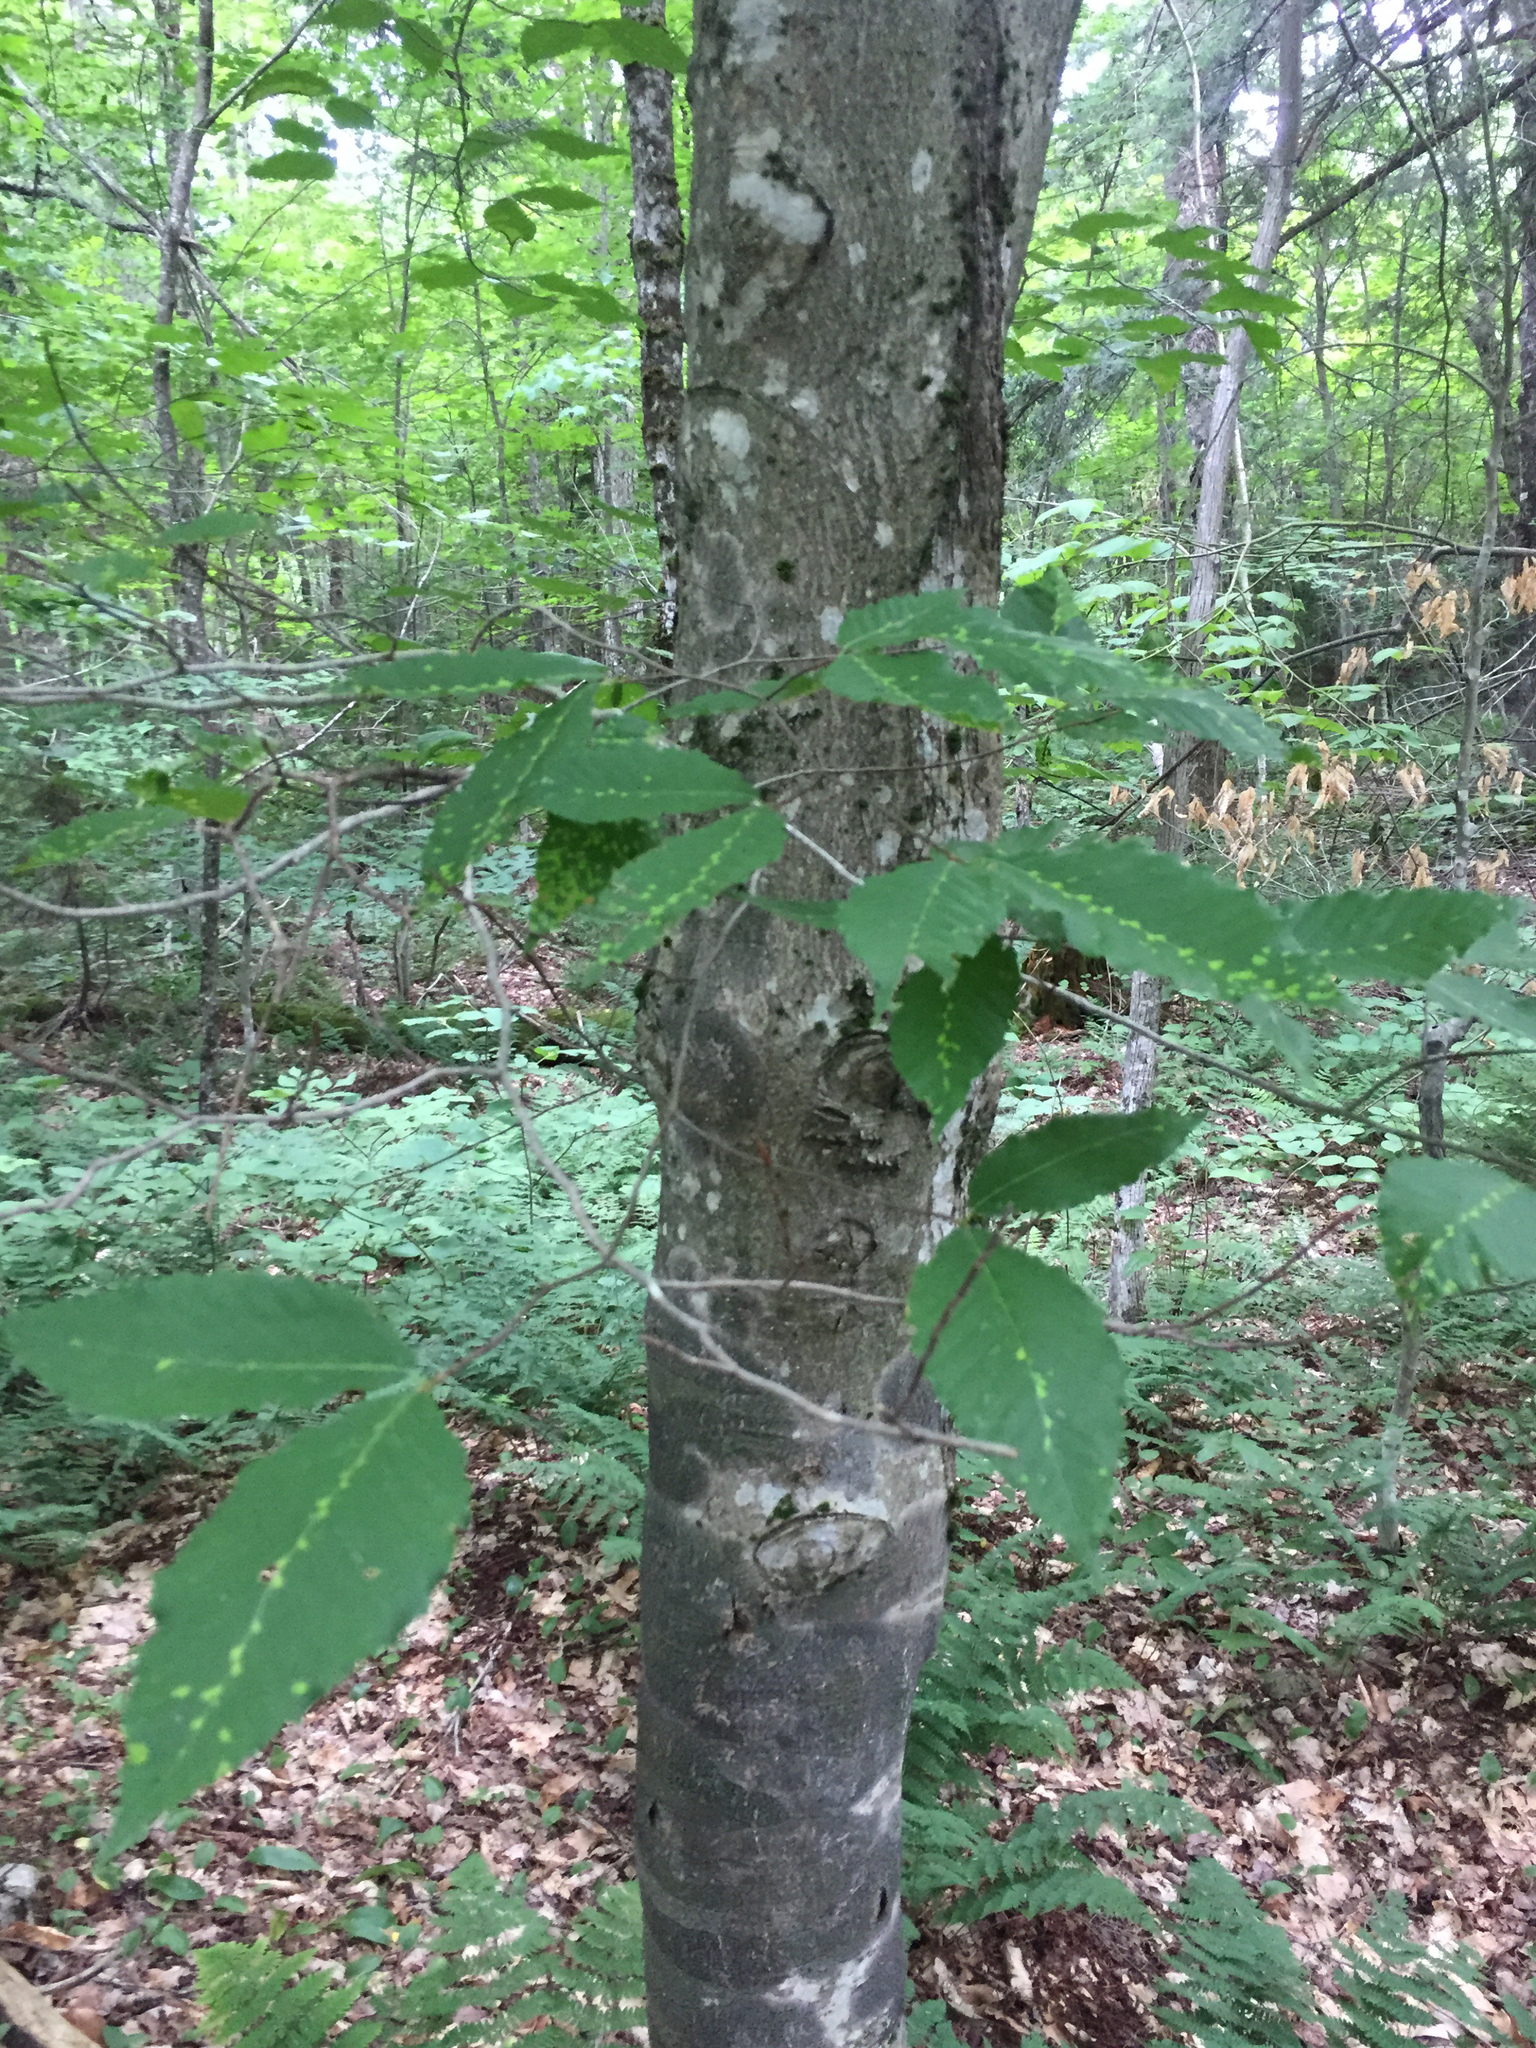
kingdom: Plantae
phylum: Tracheophyta
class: Magnoliopsida
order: Fagales
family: Fagaceae
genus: Fagus
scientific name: Fagus grandifolia
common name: American beech
